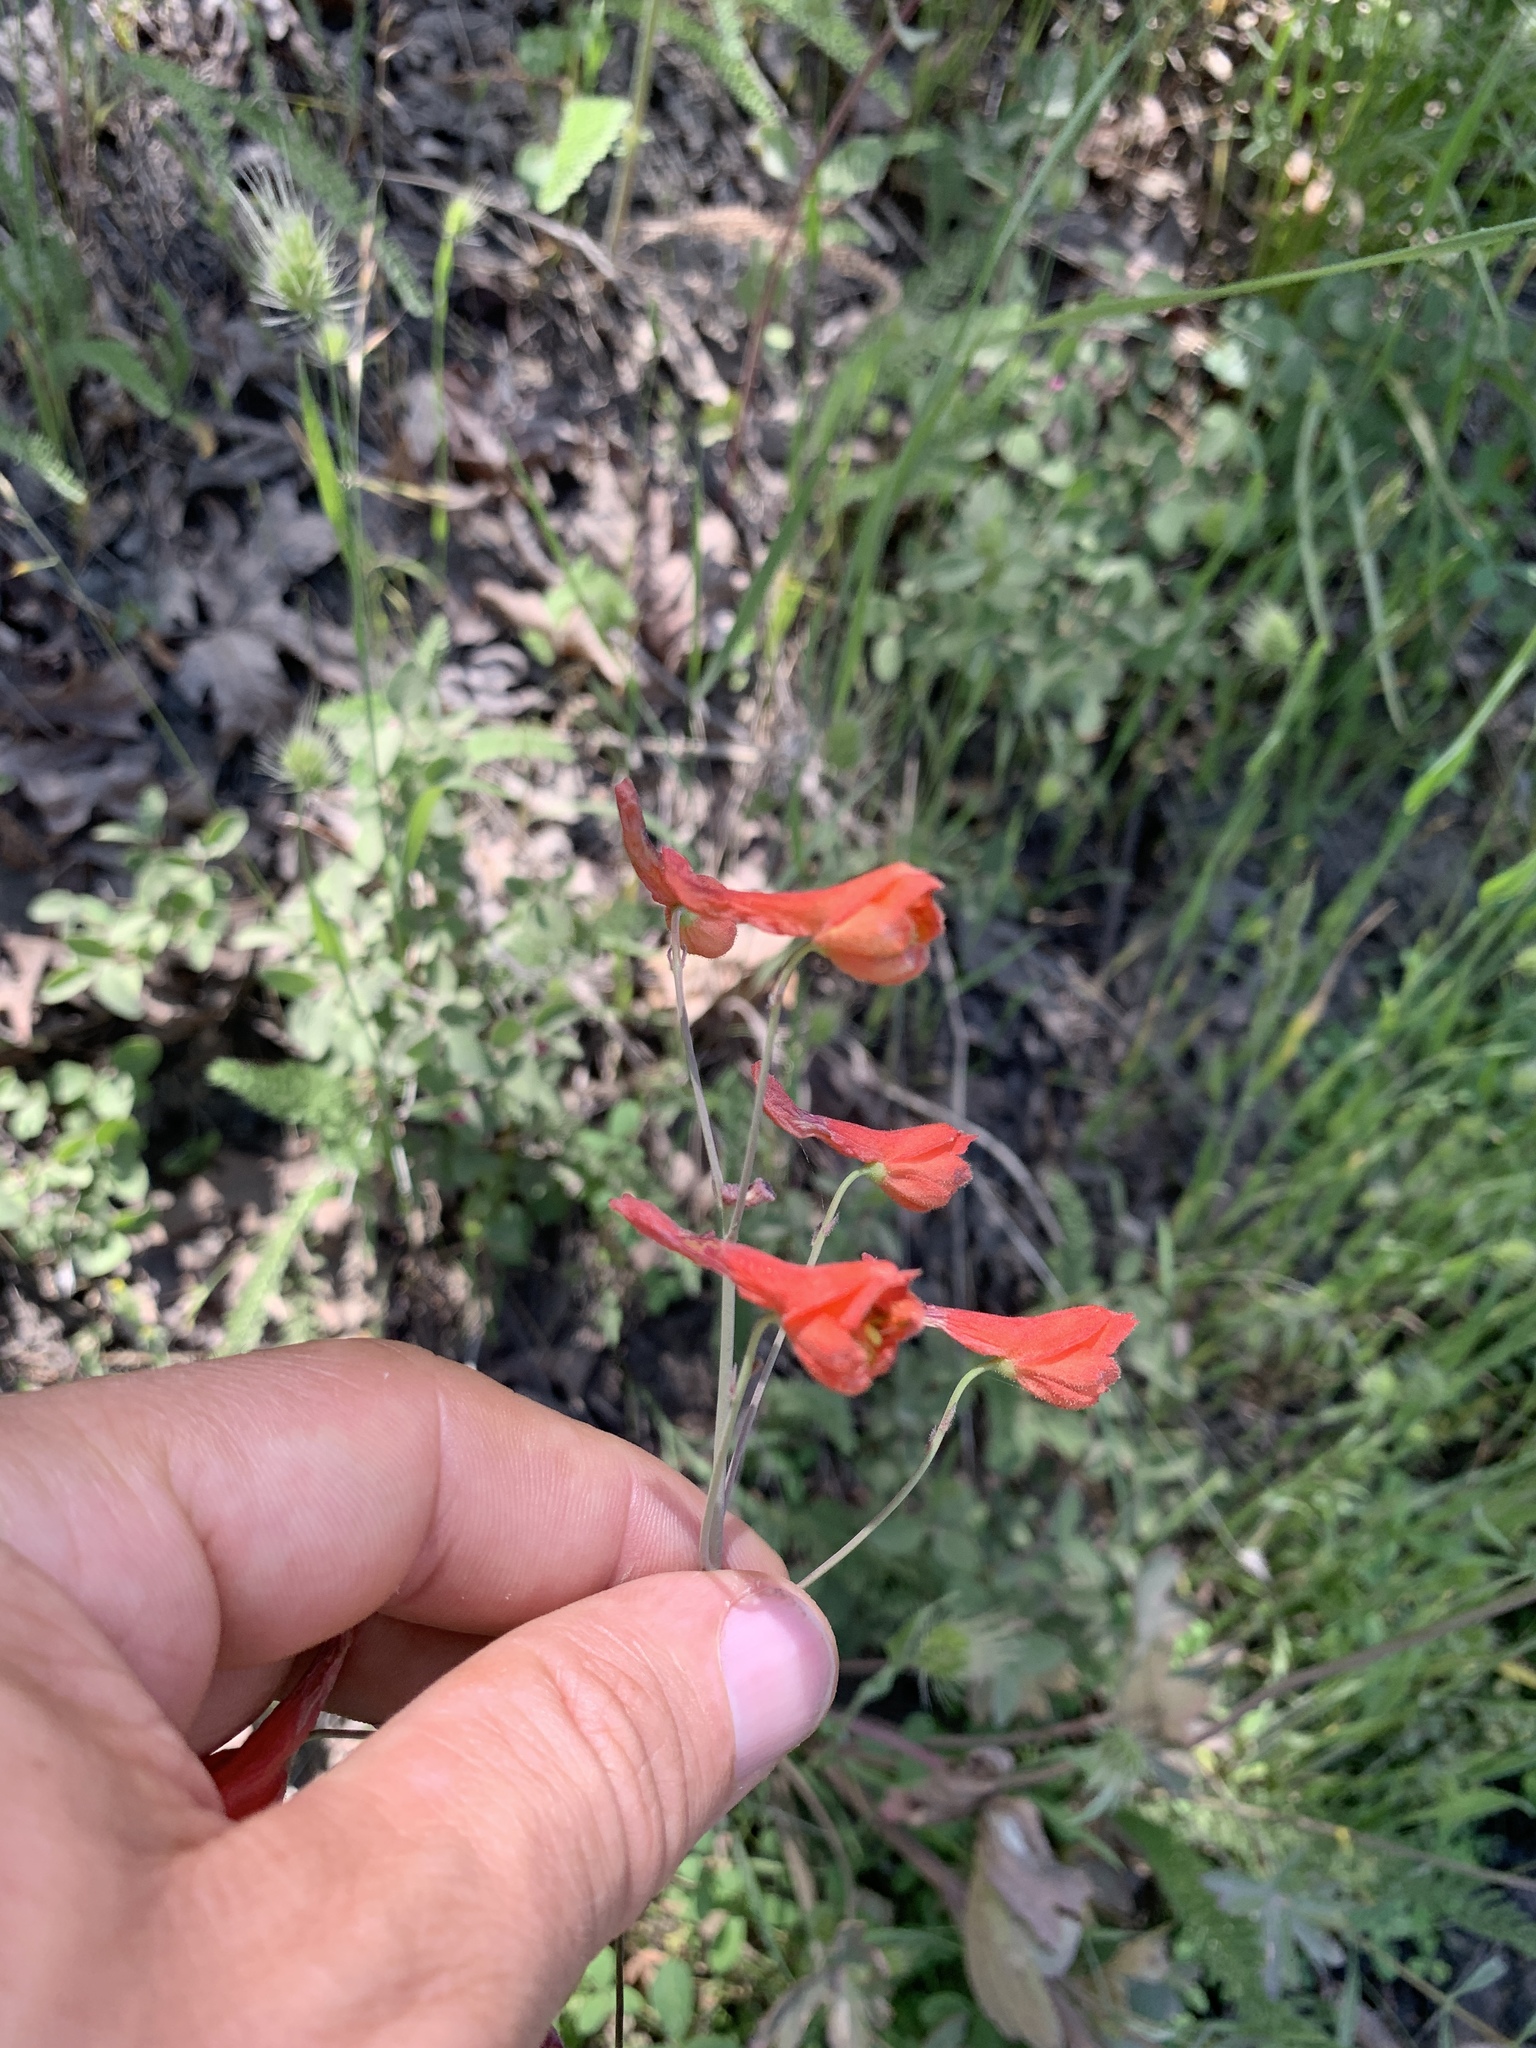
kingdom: Plantae
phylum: Tracheophyta
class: Magnoliopsida
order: Ranunculales
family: Ranunculaceae
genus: Delphinium
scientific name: Delphinium nudicaule
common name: Red larkspur
